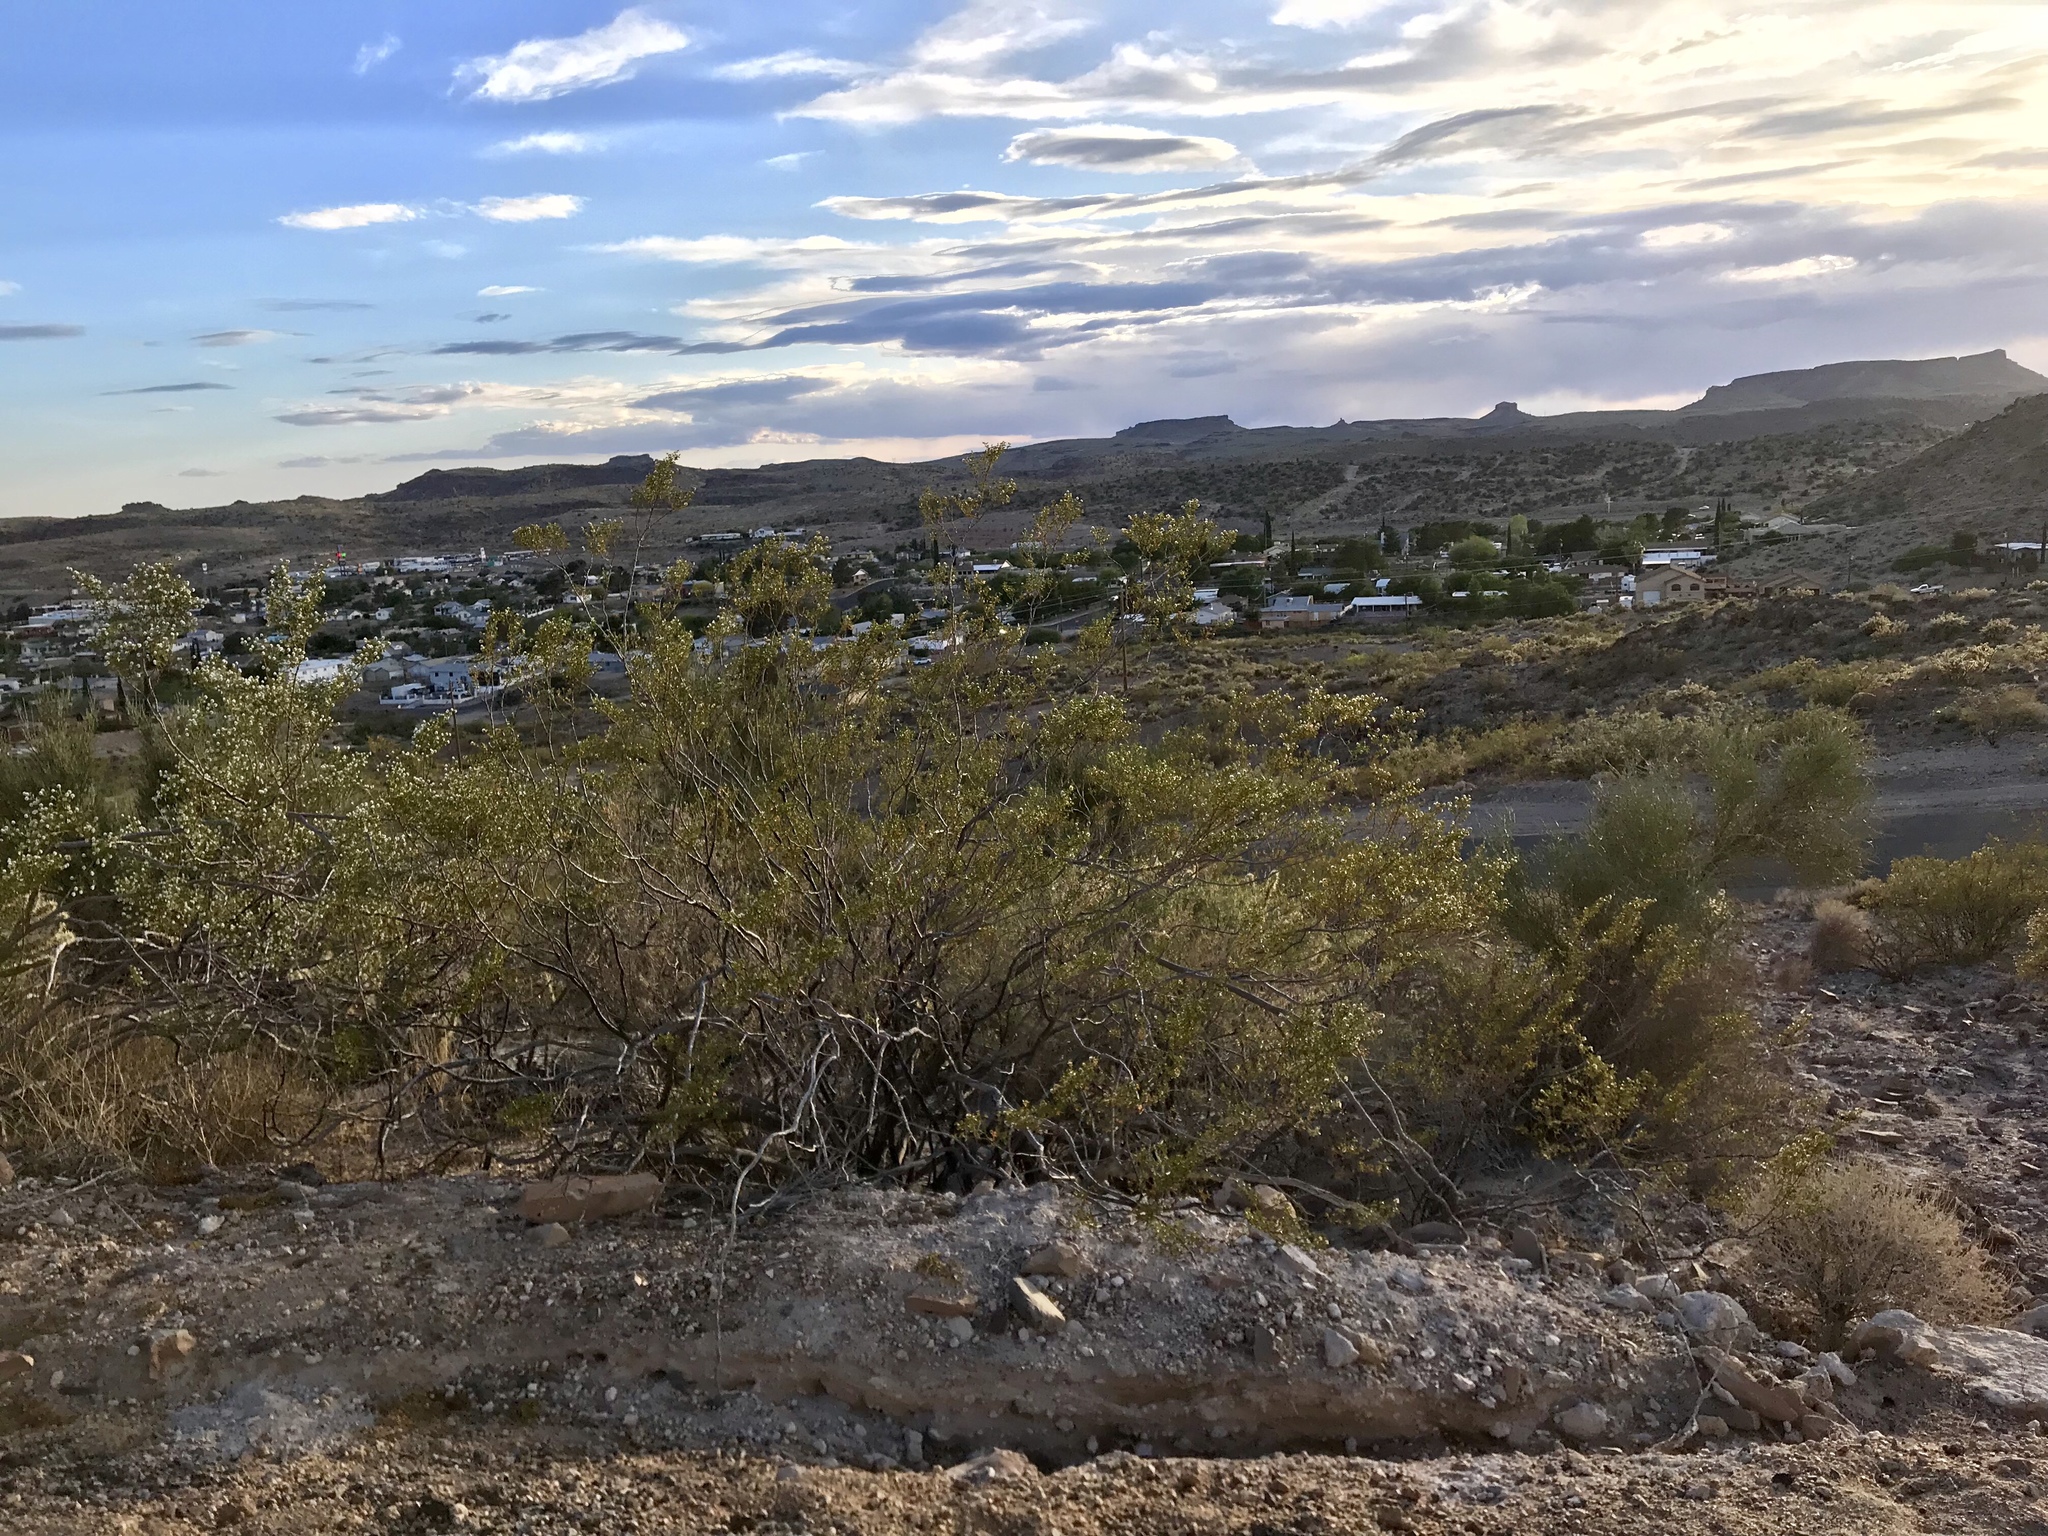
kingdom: Plantae
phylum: Tracheophyta
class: Magnoliopsida
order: Zygophyllales
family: Zygophyllaceae
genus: Larrea
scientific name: Larrea tridentata
